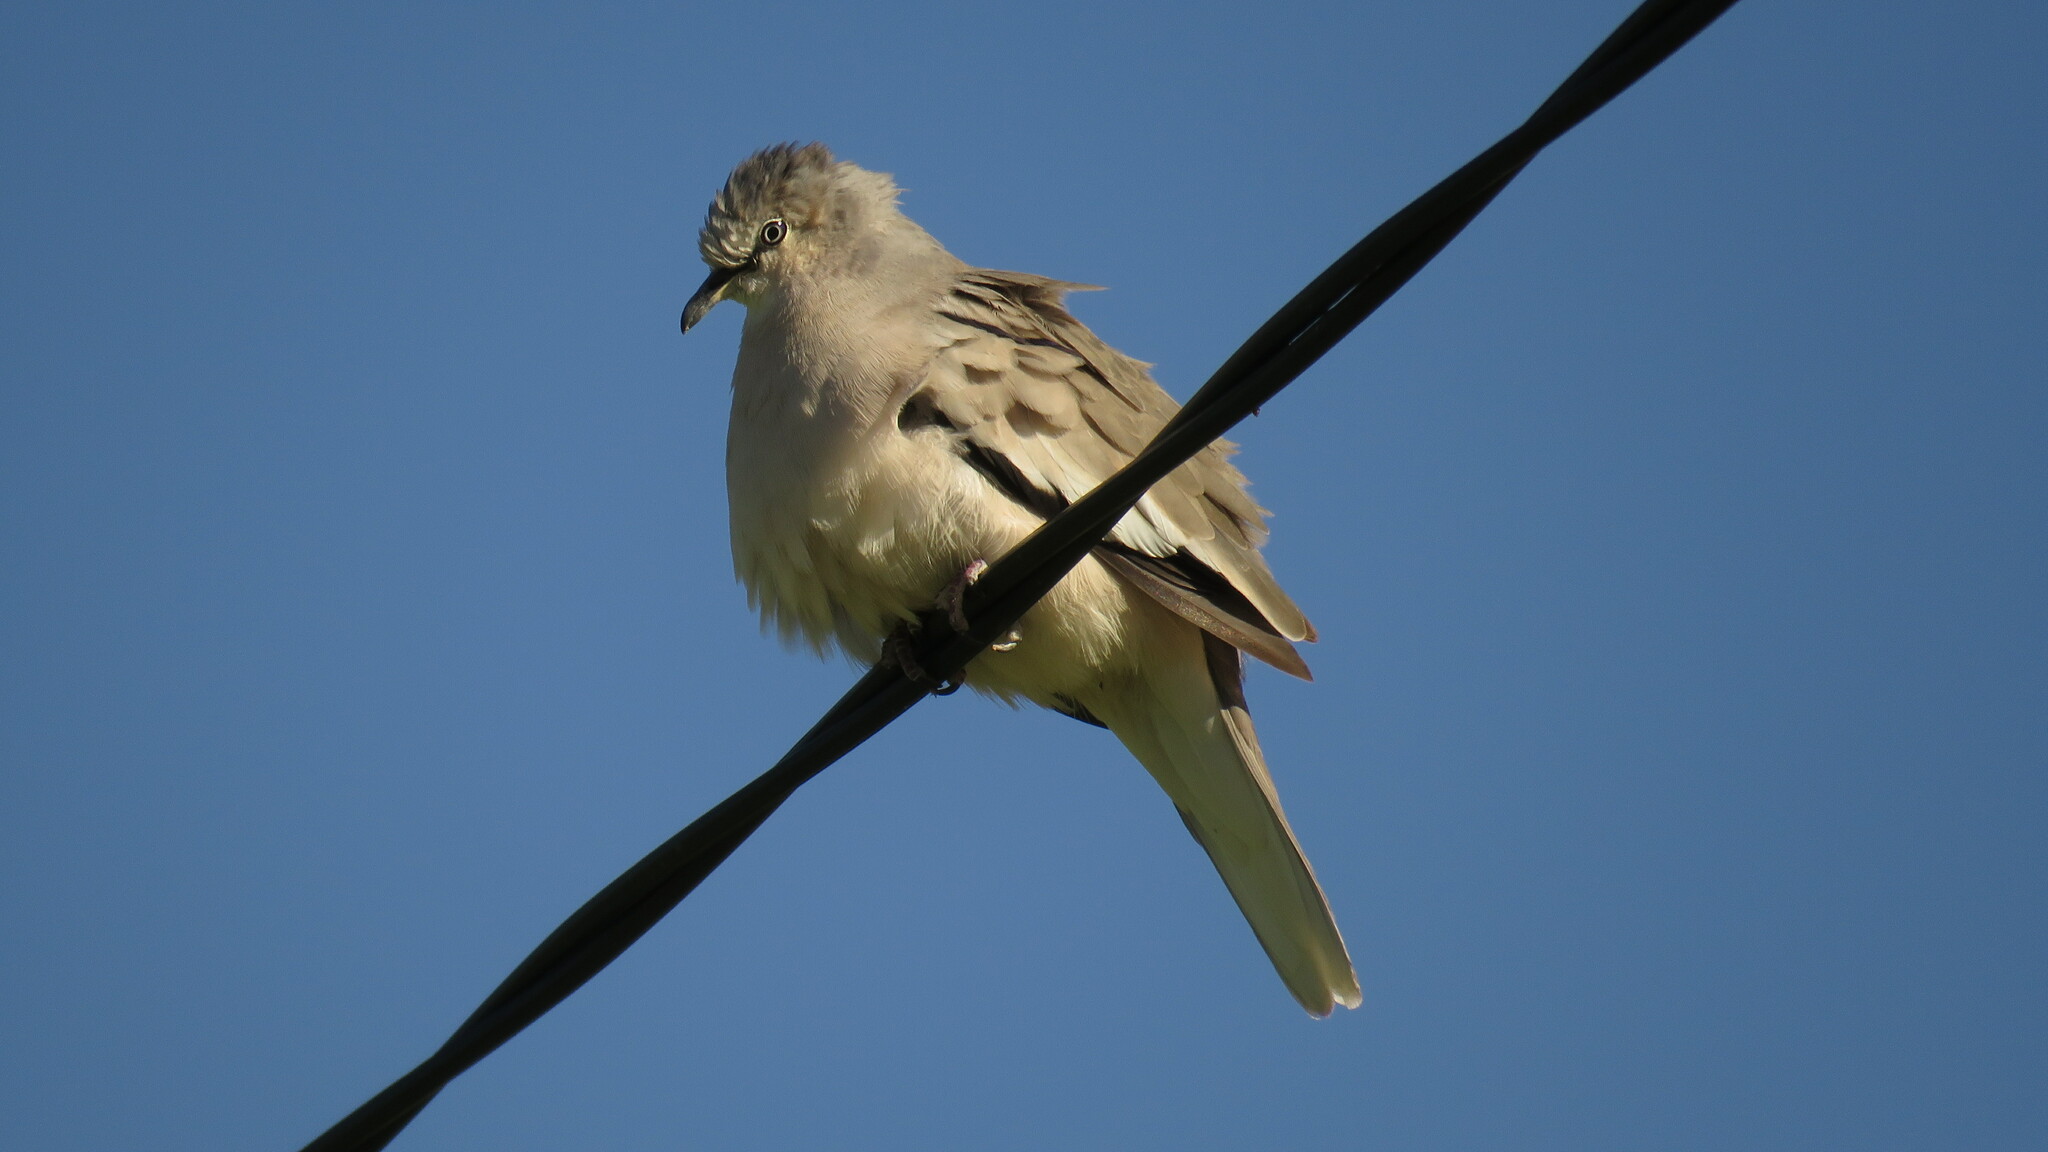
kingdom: Animalia
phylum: Chordata
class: Aves
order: Columbiformes
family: Columbidae
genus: Columbina
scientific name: Columbina picui
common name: Picui ground dove
